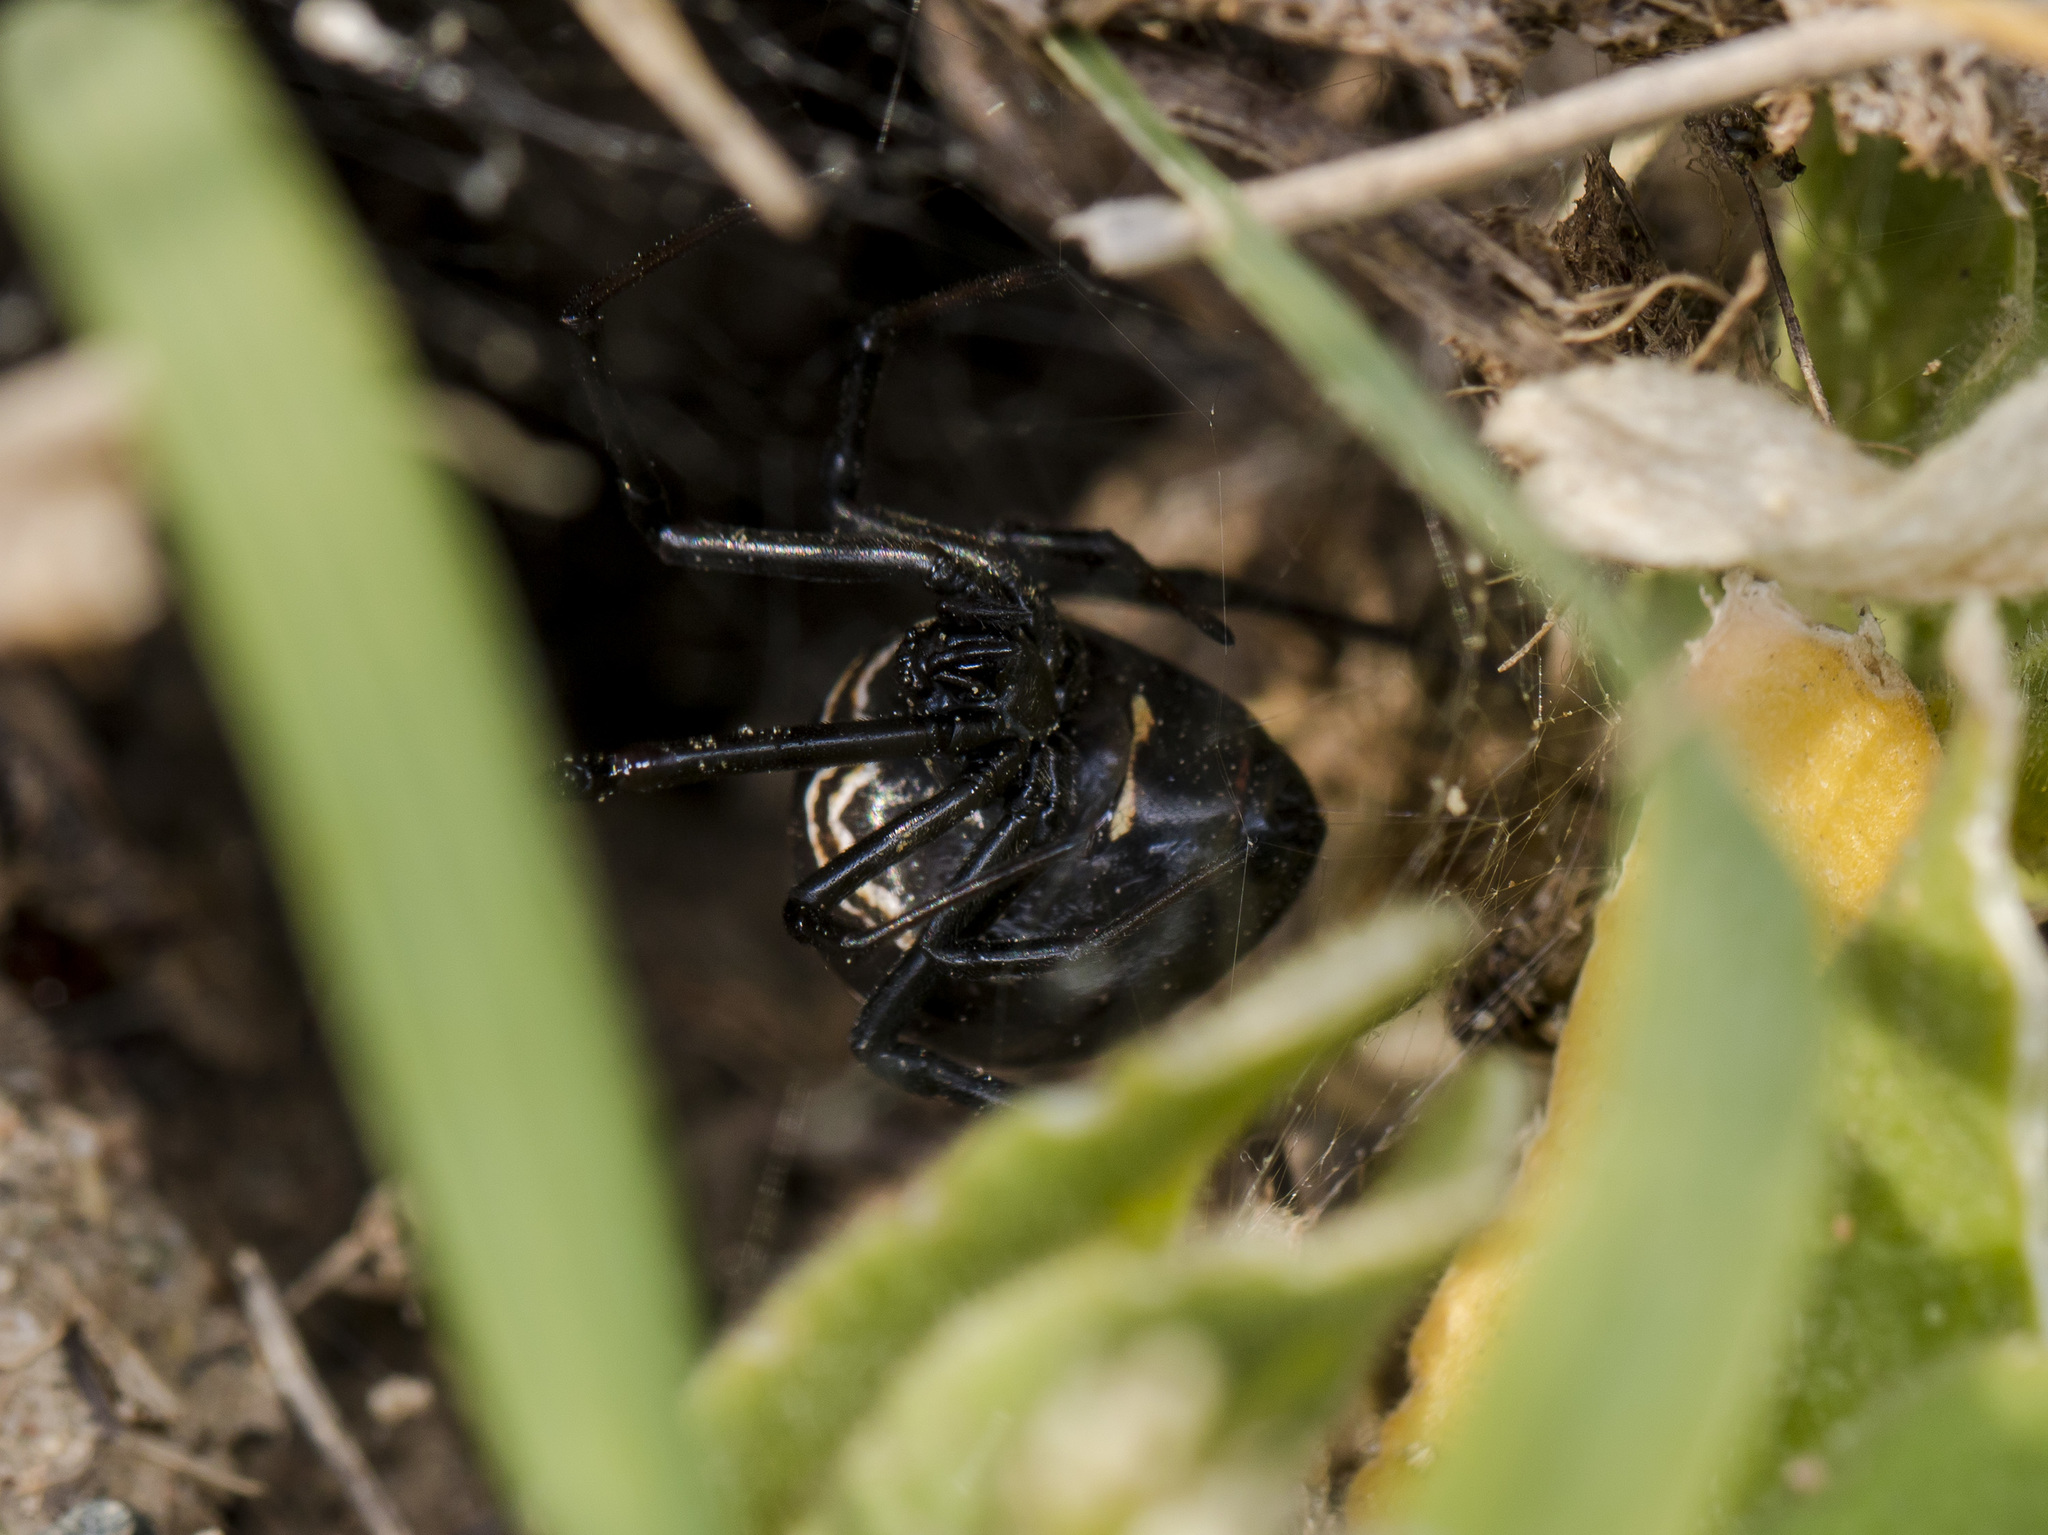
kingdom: Animalia
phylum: Arthropoda
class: Arachnida
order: Araneae
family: Theridiidae
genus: Latrodectus
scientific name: Latrodectus tredecimguttatus
